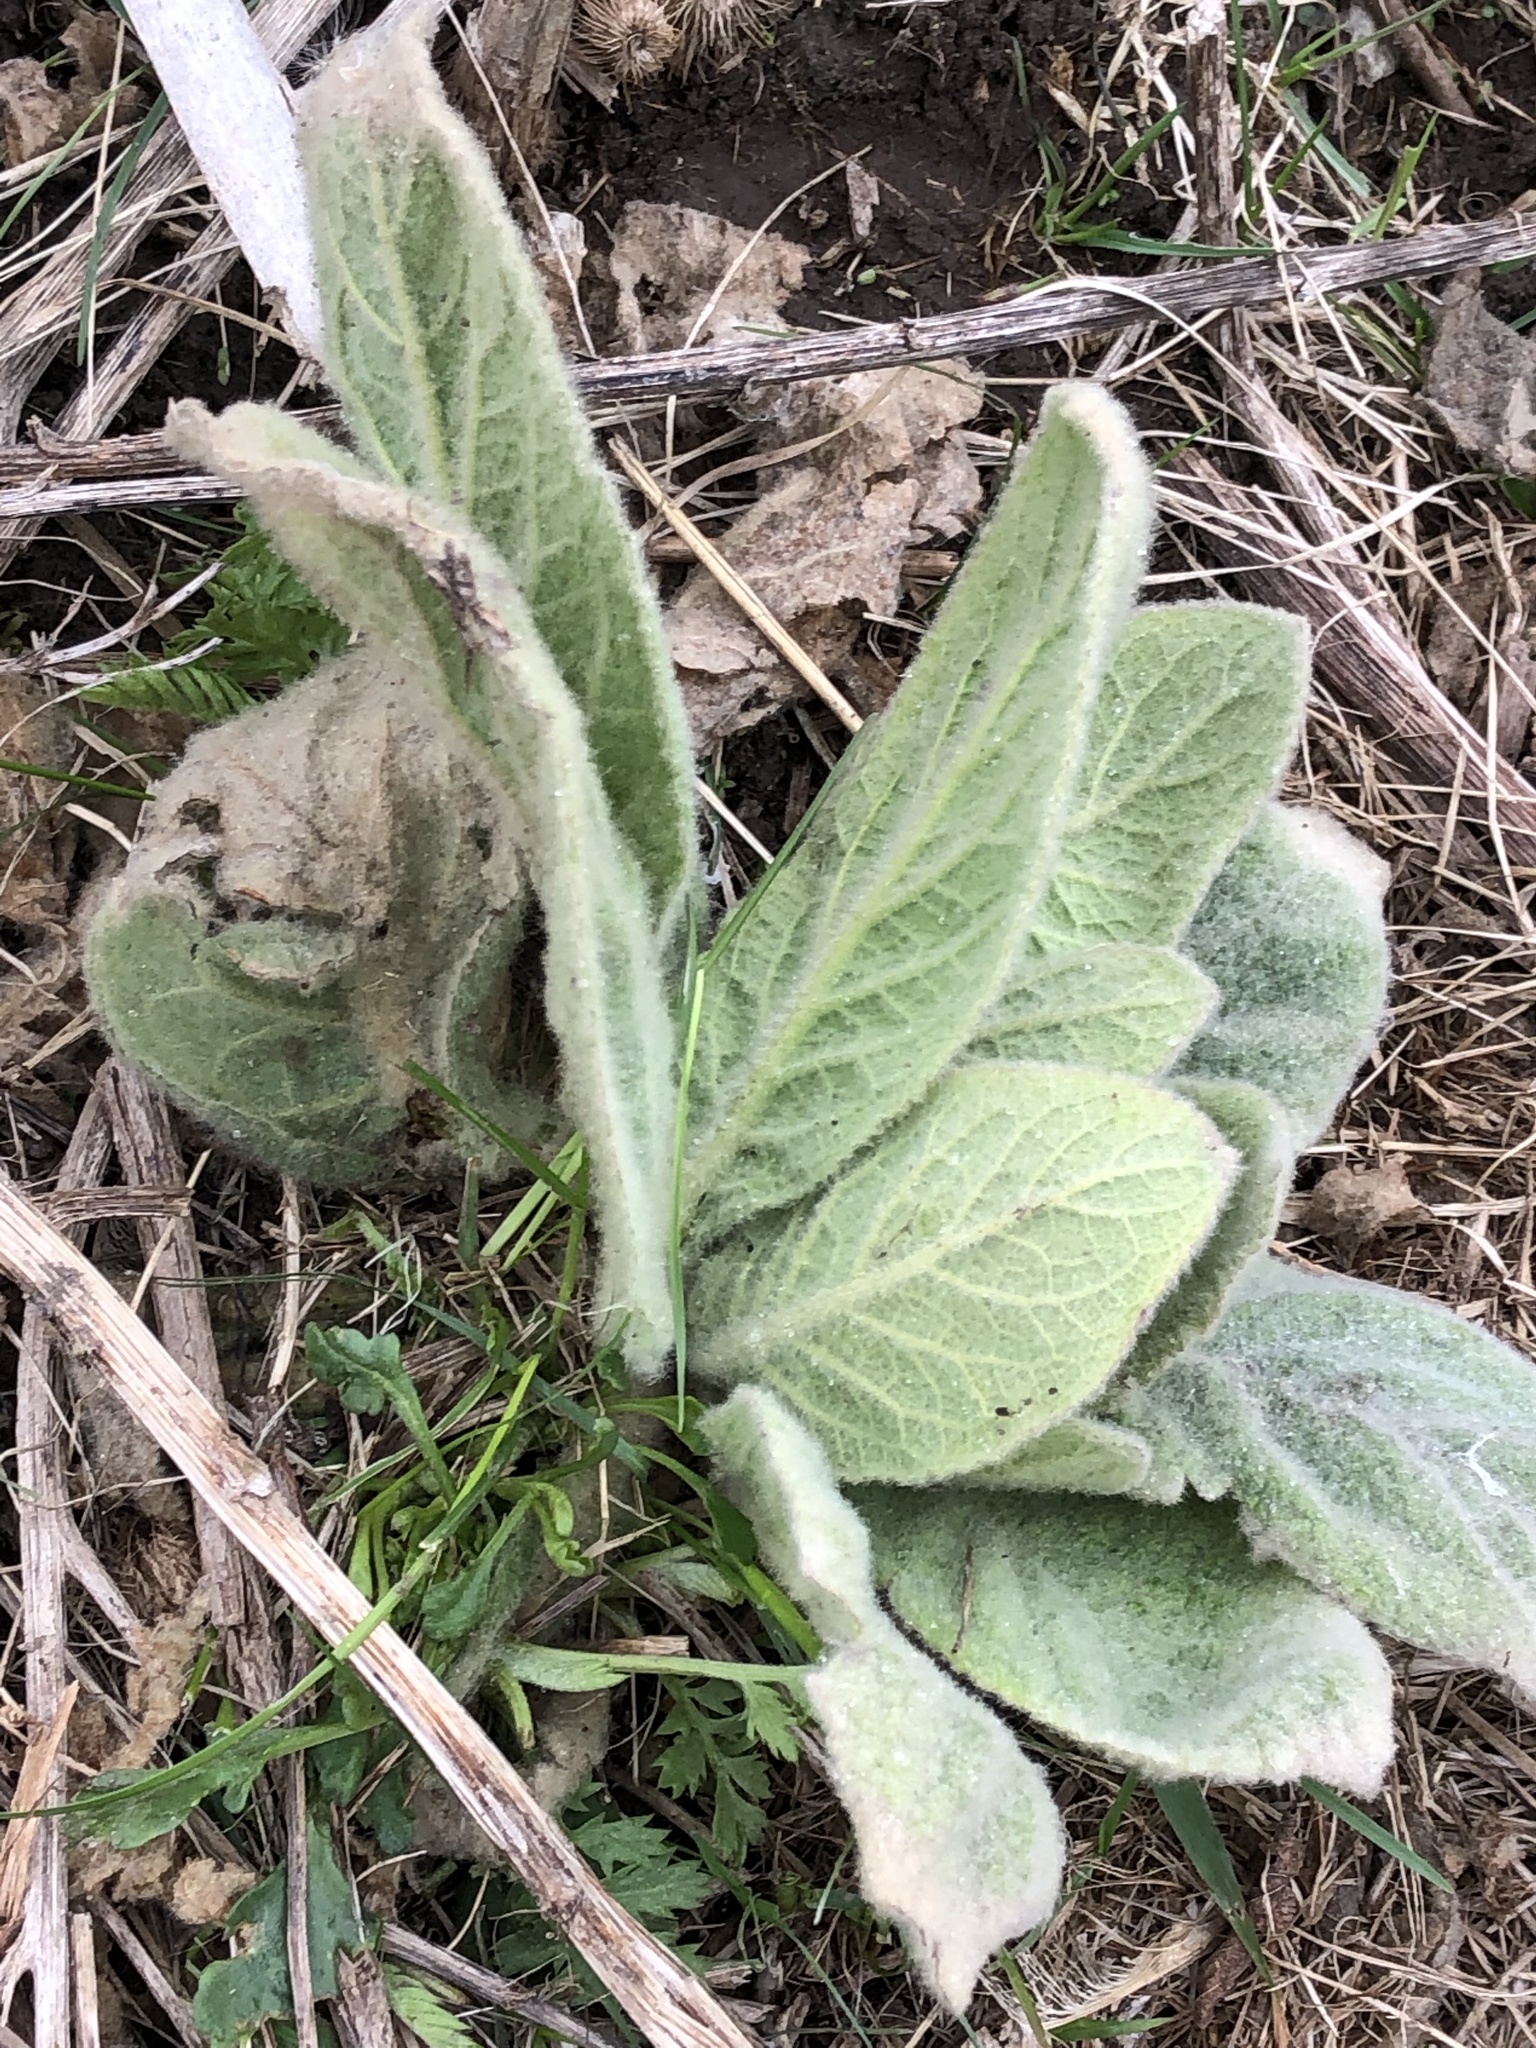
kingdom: Plantae
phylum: Tracheophyta
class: Magnoliopsida
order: Lamiales
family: Scrophulariaceae
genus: Verbascum
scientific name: Verbascum thapsus
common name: Common mullein
